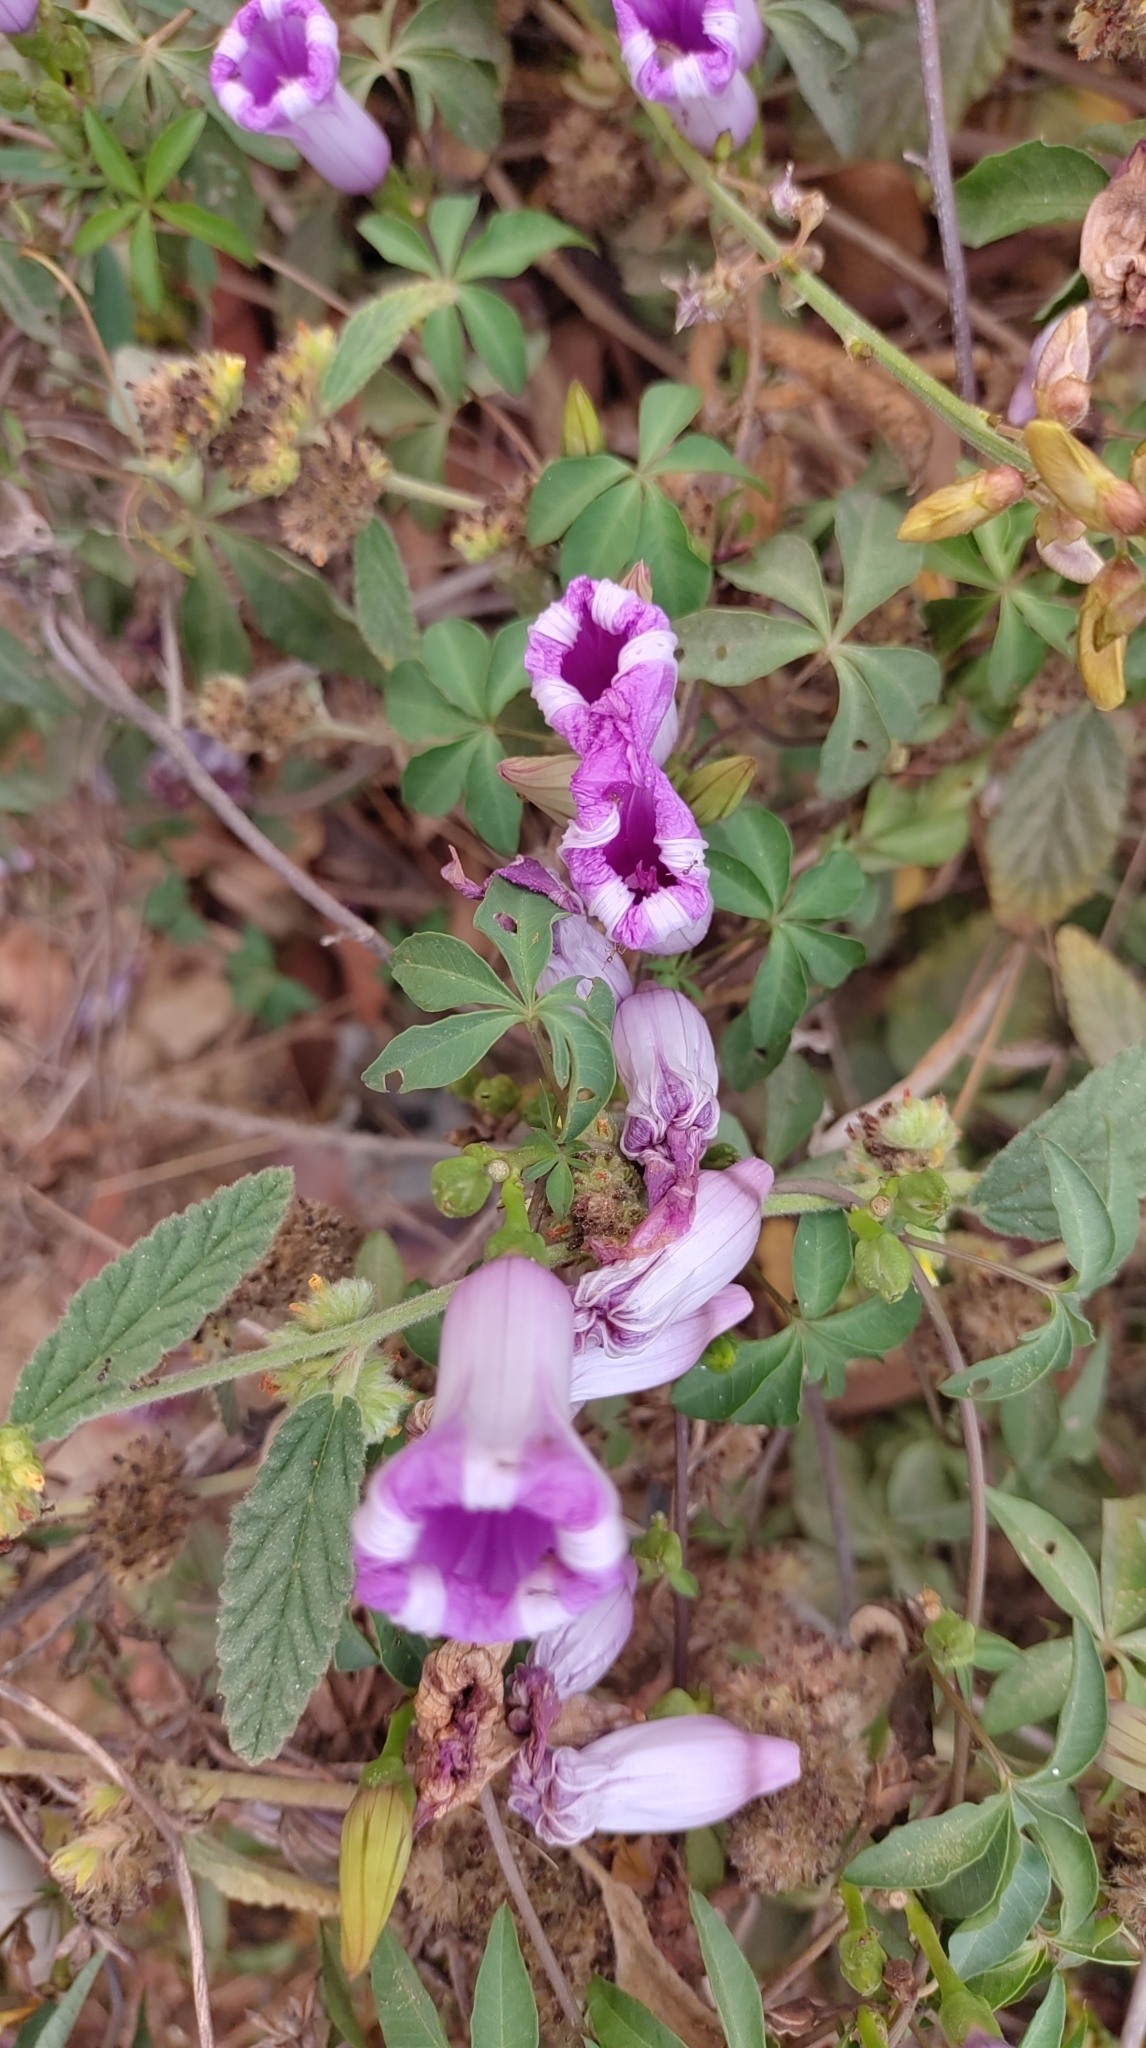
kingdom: Plantae
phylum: Tracheophyta
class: Magnoliopsida
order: Solanales
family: Convolvulaceae
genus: Ipomoea
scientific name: Ipomoea cairica
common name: Mile a minute vine
